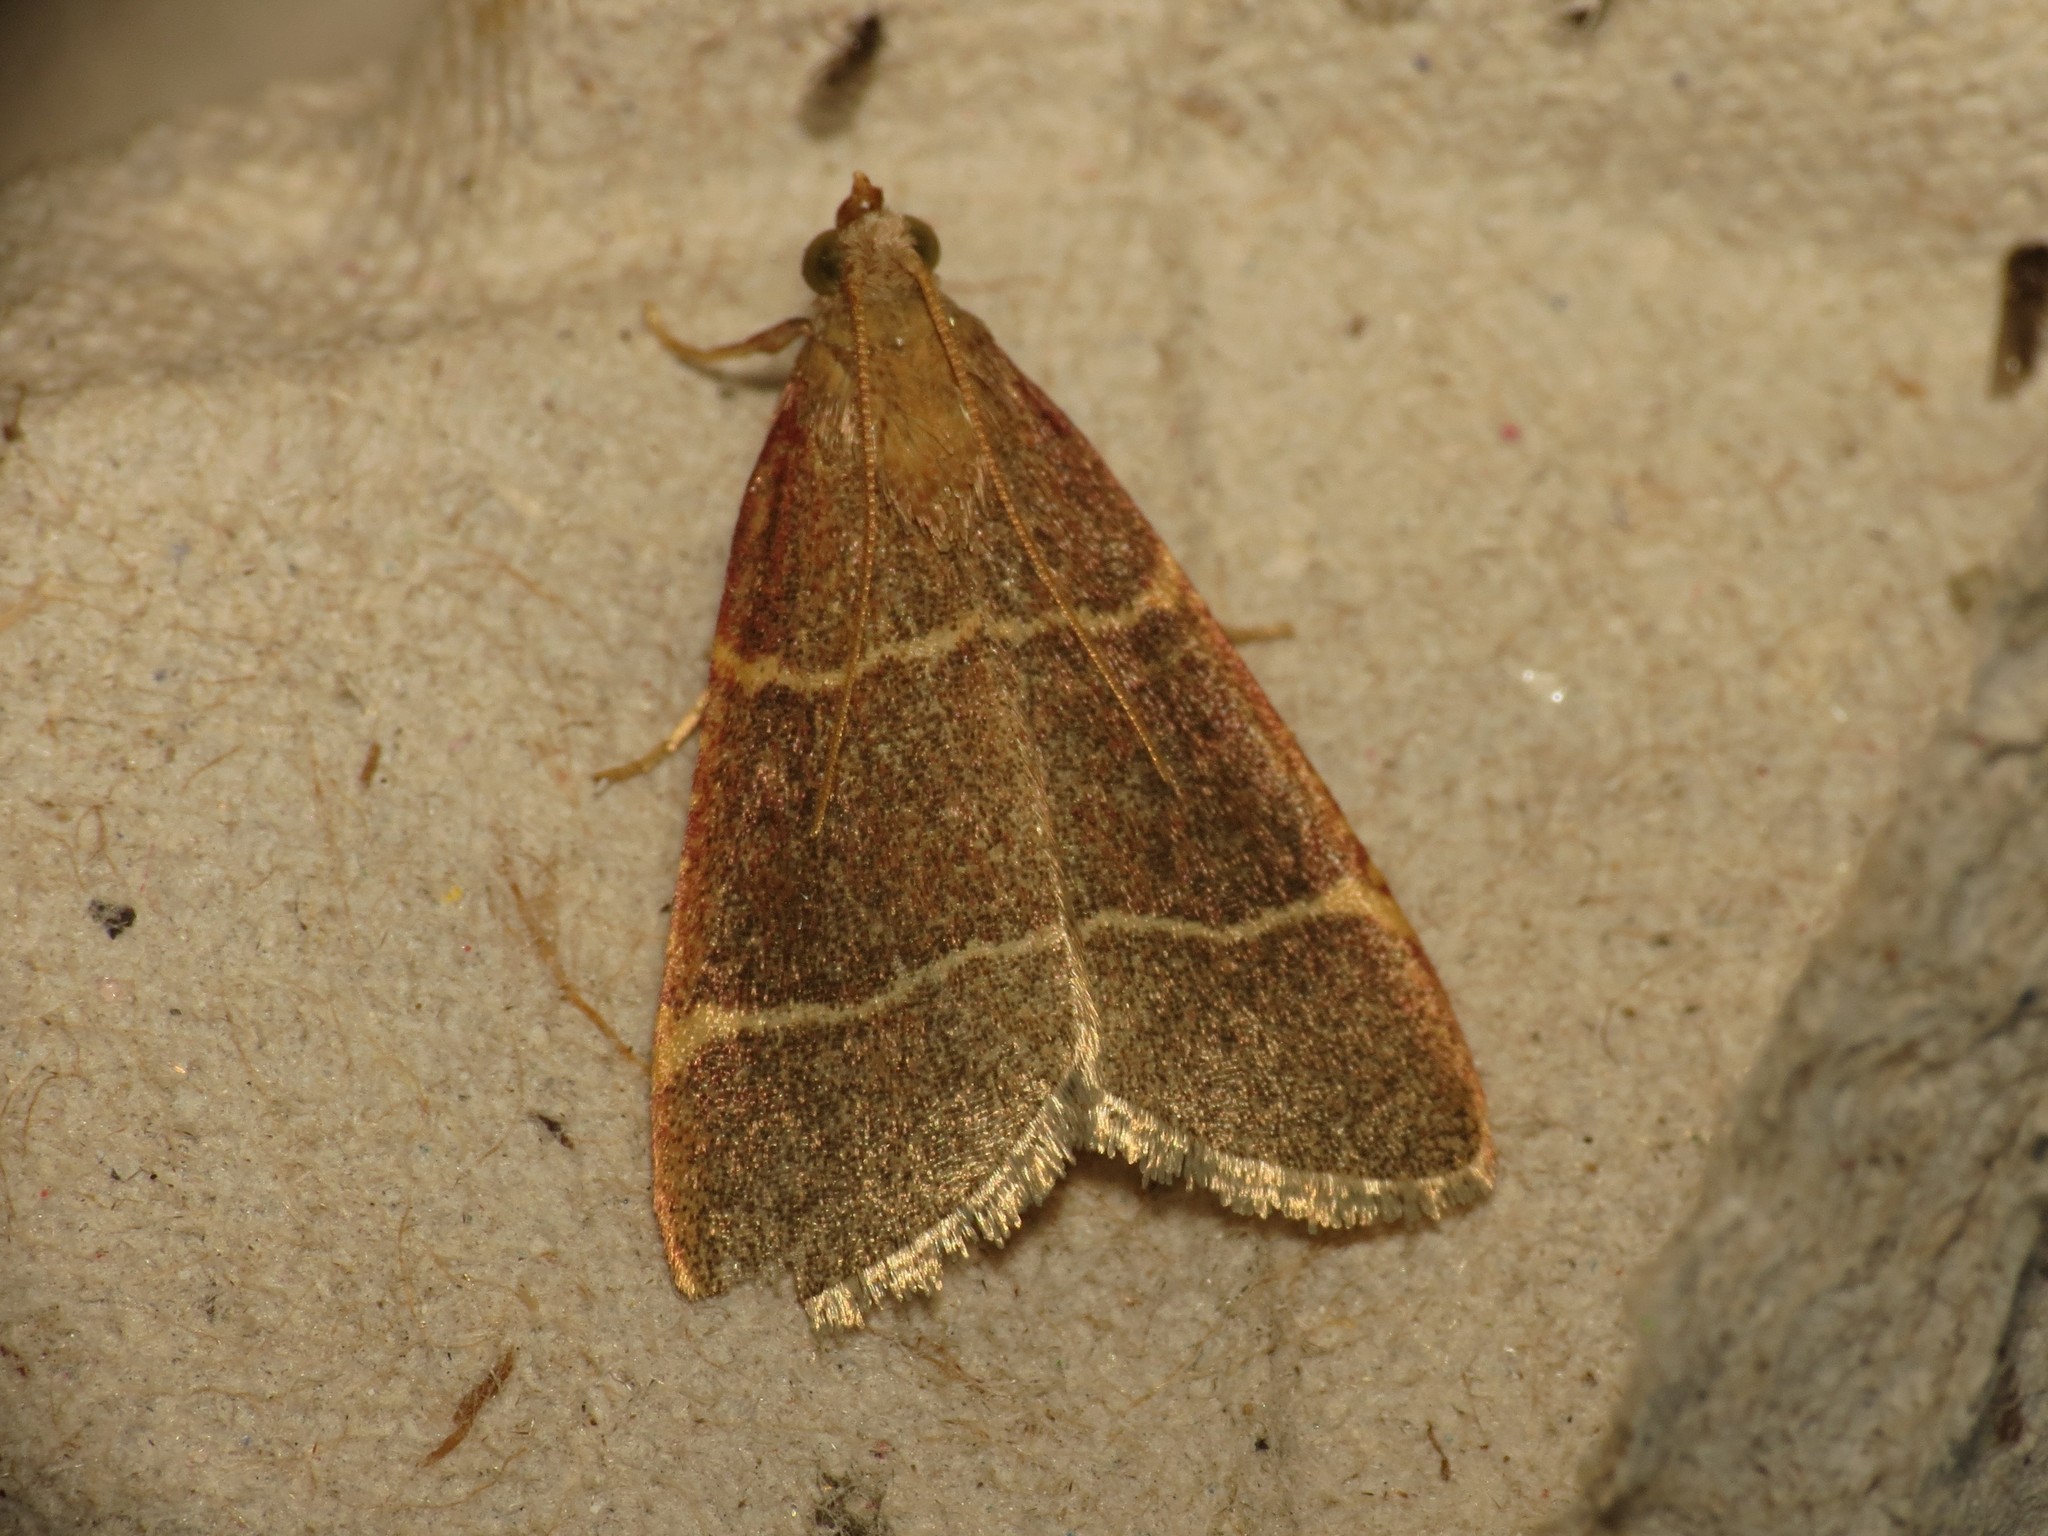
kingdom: Animalia
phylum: Arthropoda
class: Insecta
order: Lepidoptera
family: Pyralidae
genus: Hypsopygia
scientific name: Hypsopygia glaucinalis
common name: Double-striped tabby
